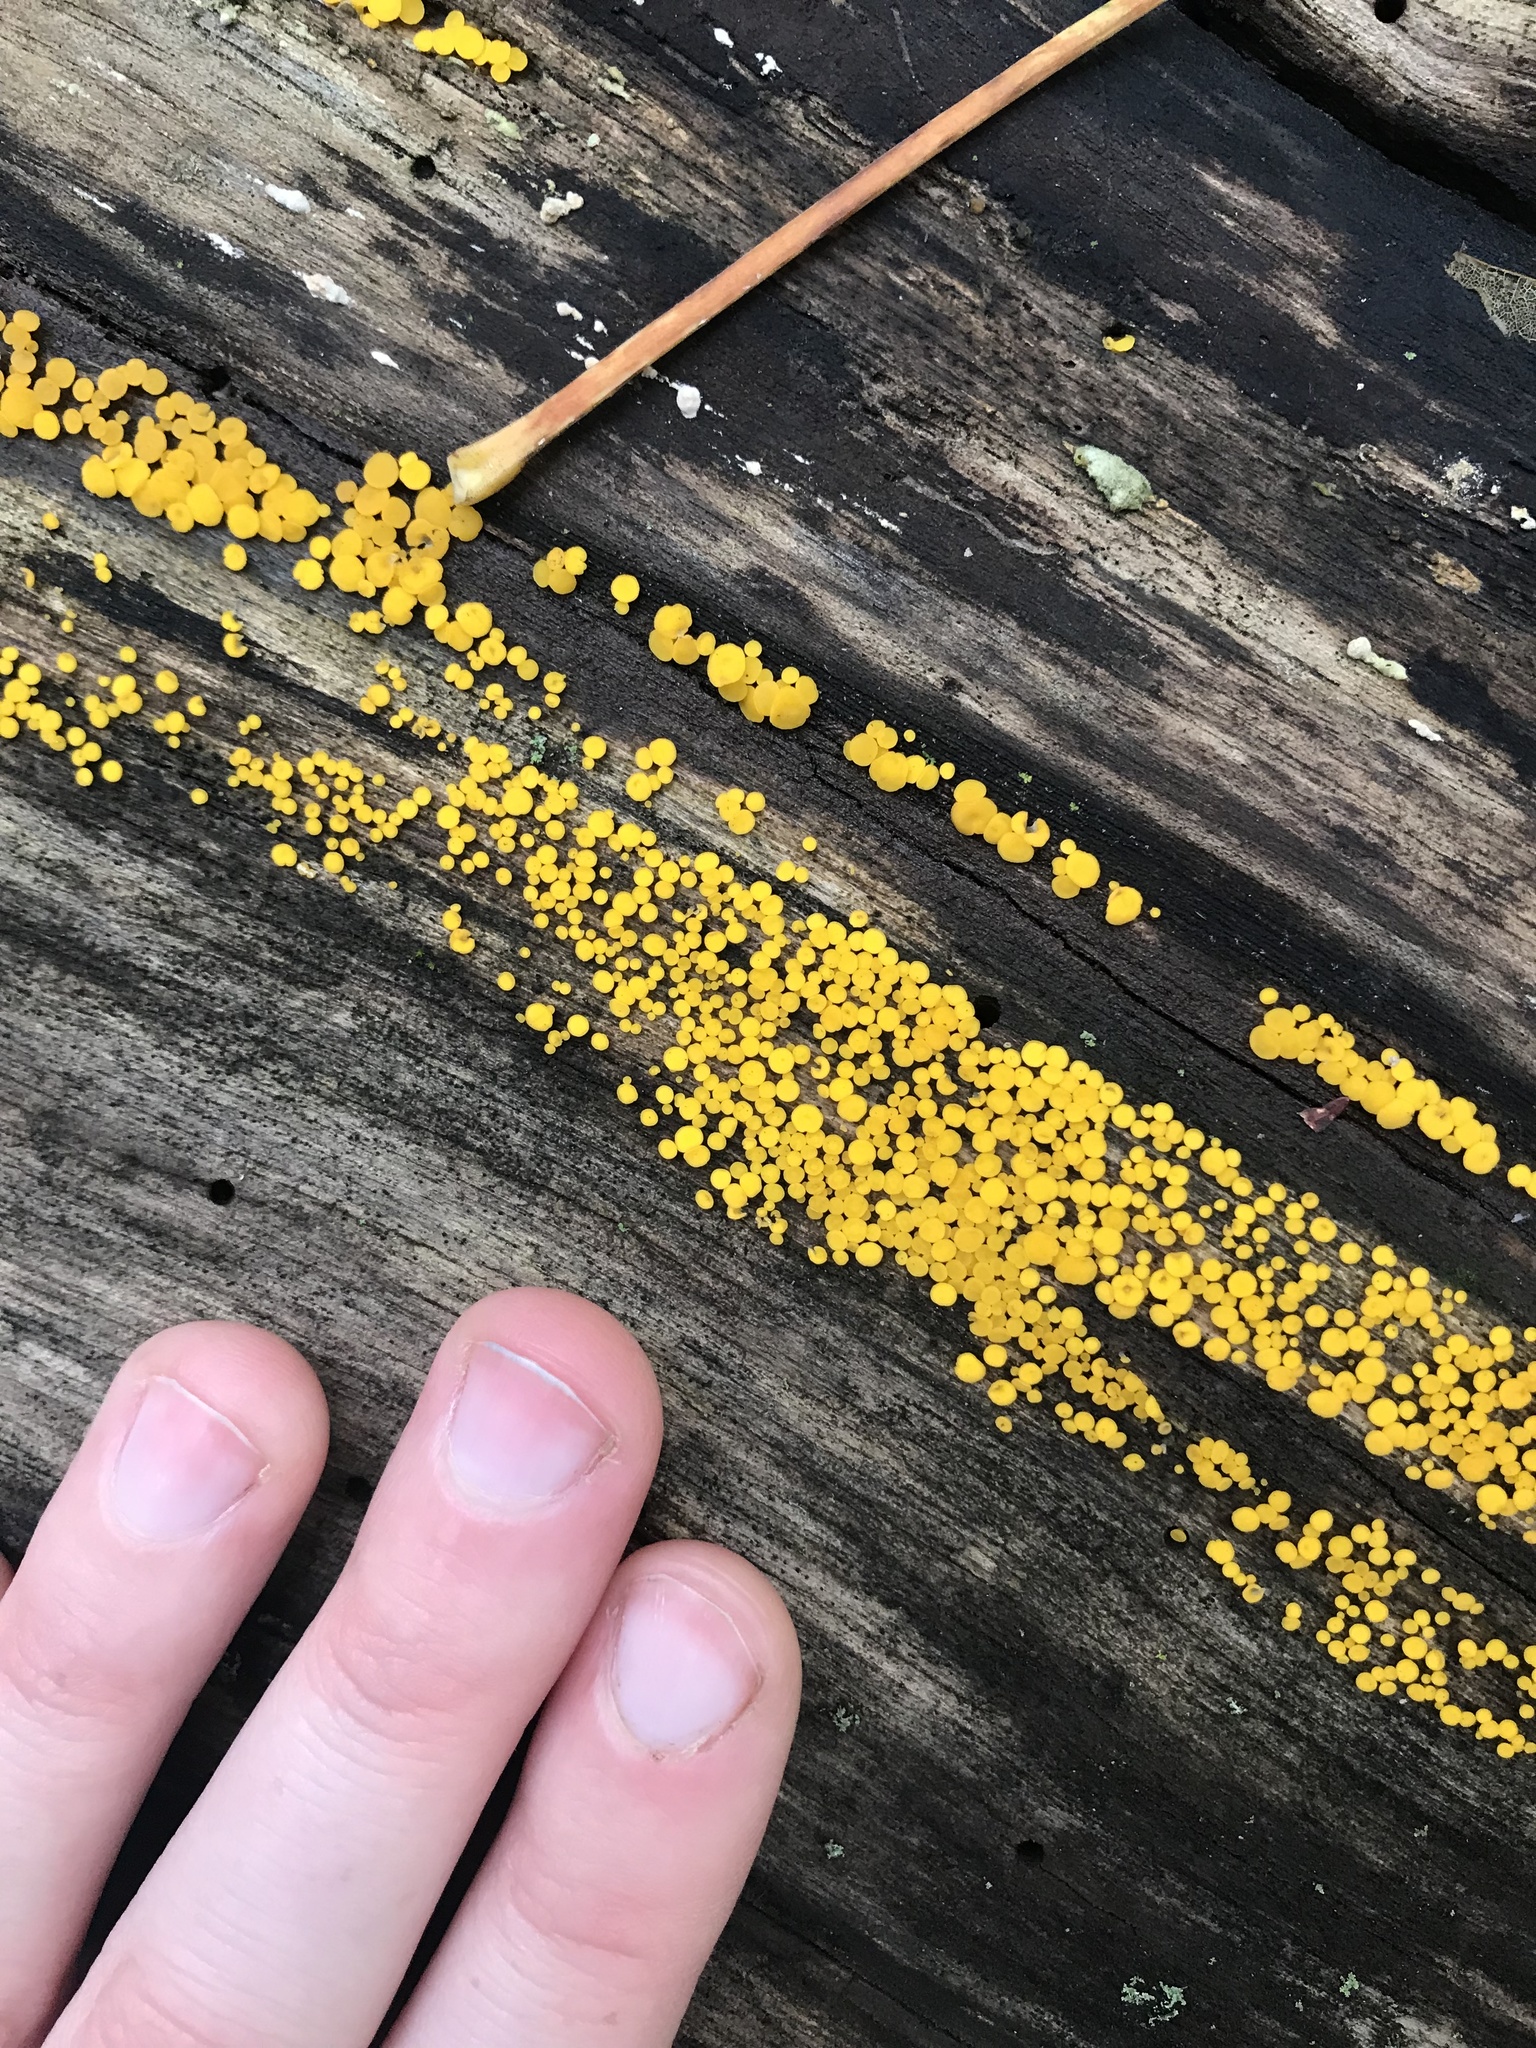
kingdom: Fungi
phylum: Ascomycota
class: Leotiomycetes
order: Helotiales
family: Pezizellaceae
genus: Calycina
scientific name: Calycina citrina
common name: Yellow fairy cups
